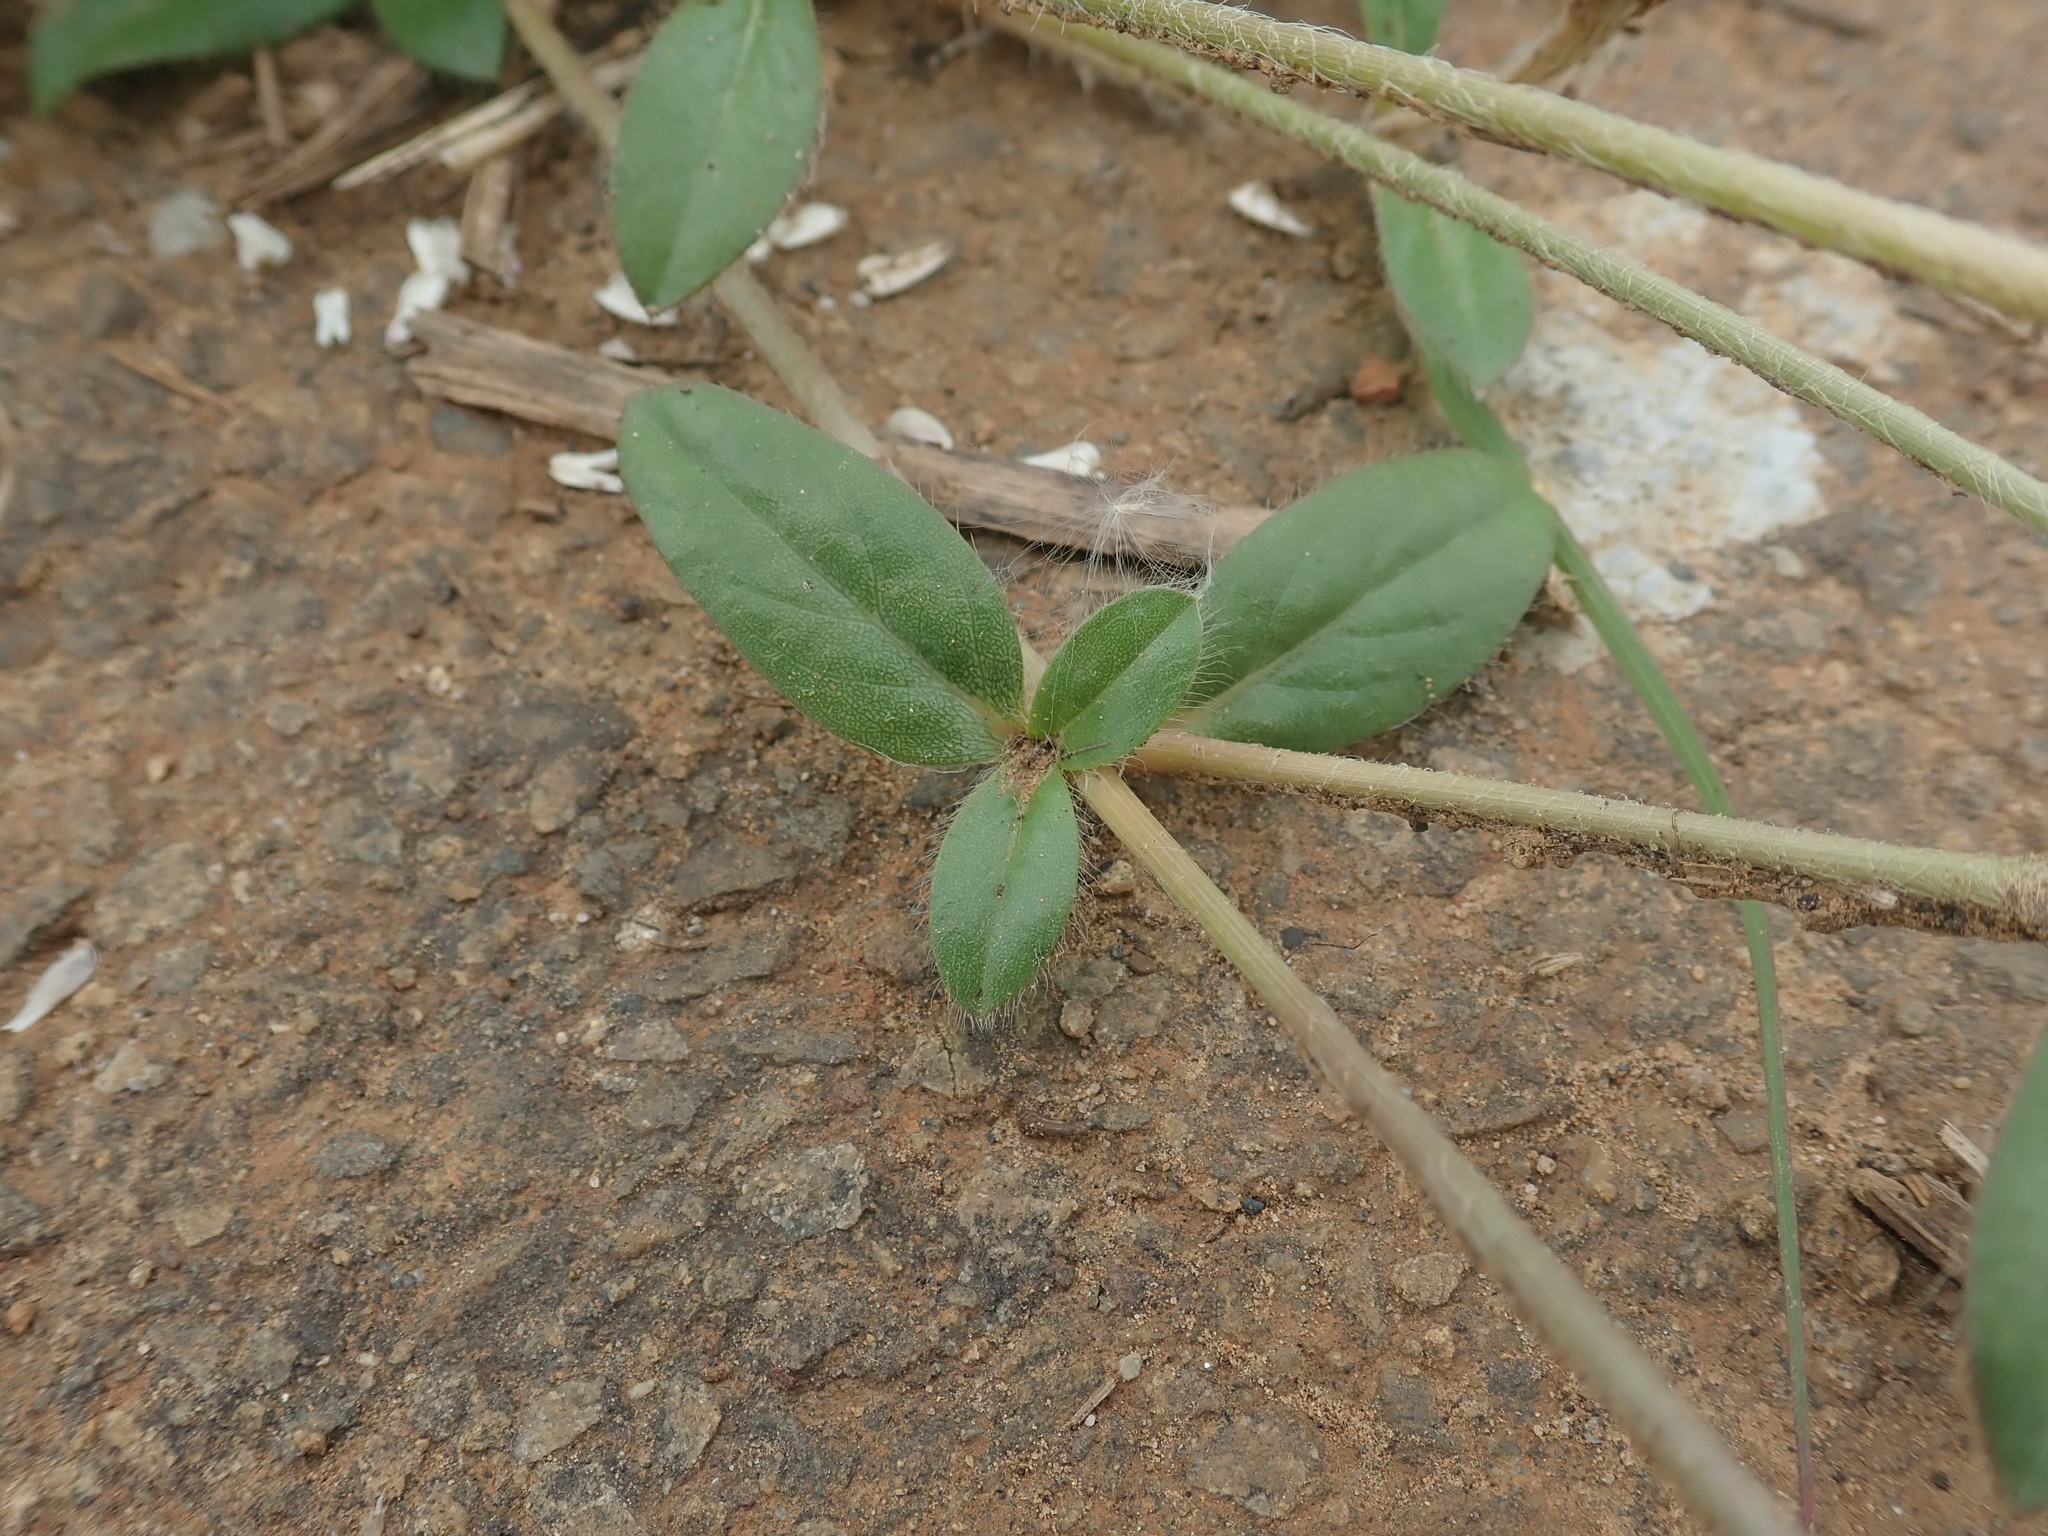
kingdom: Plantae
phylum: Tracheophyta
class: Magnoliopsida
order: Caryophyllales
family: Amaranthaceae
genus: Gomphrena
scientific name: Gomphrena celosioides
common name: Gomphrena-weed
